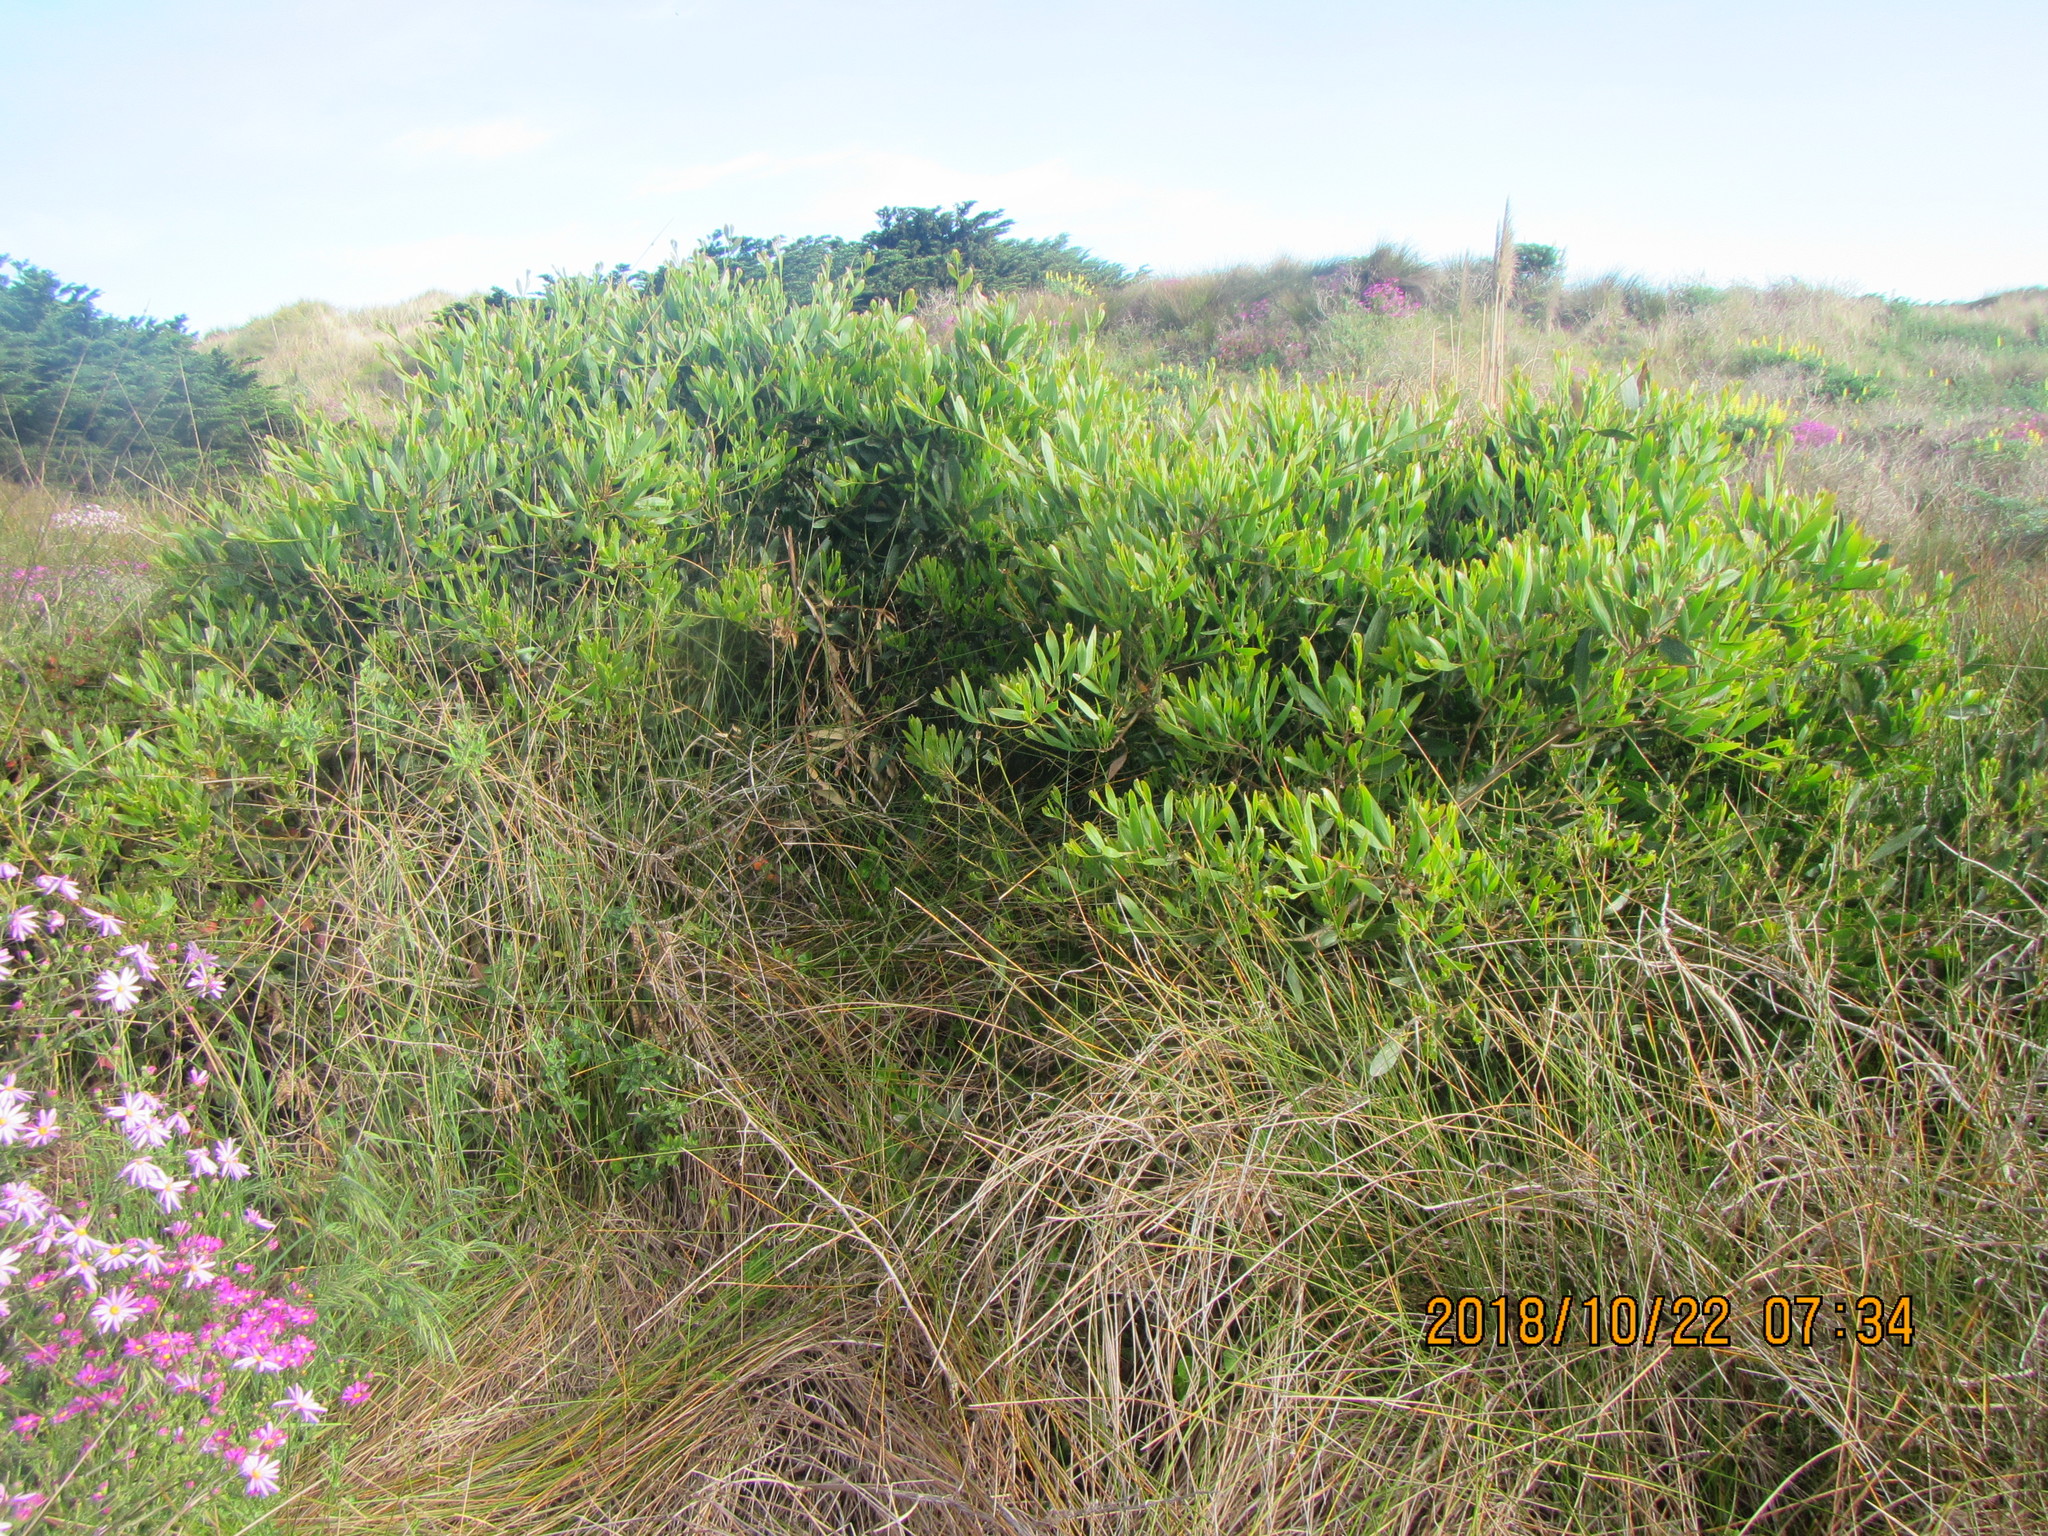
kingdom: Plantae
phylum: Tracheophyta
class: Magnoliopsida
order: Fabales
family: Fabaceae
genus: Acacia
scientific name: Acacia longifolia
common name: Sydney golden wattle
